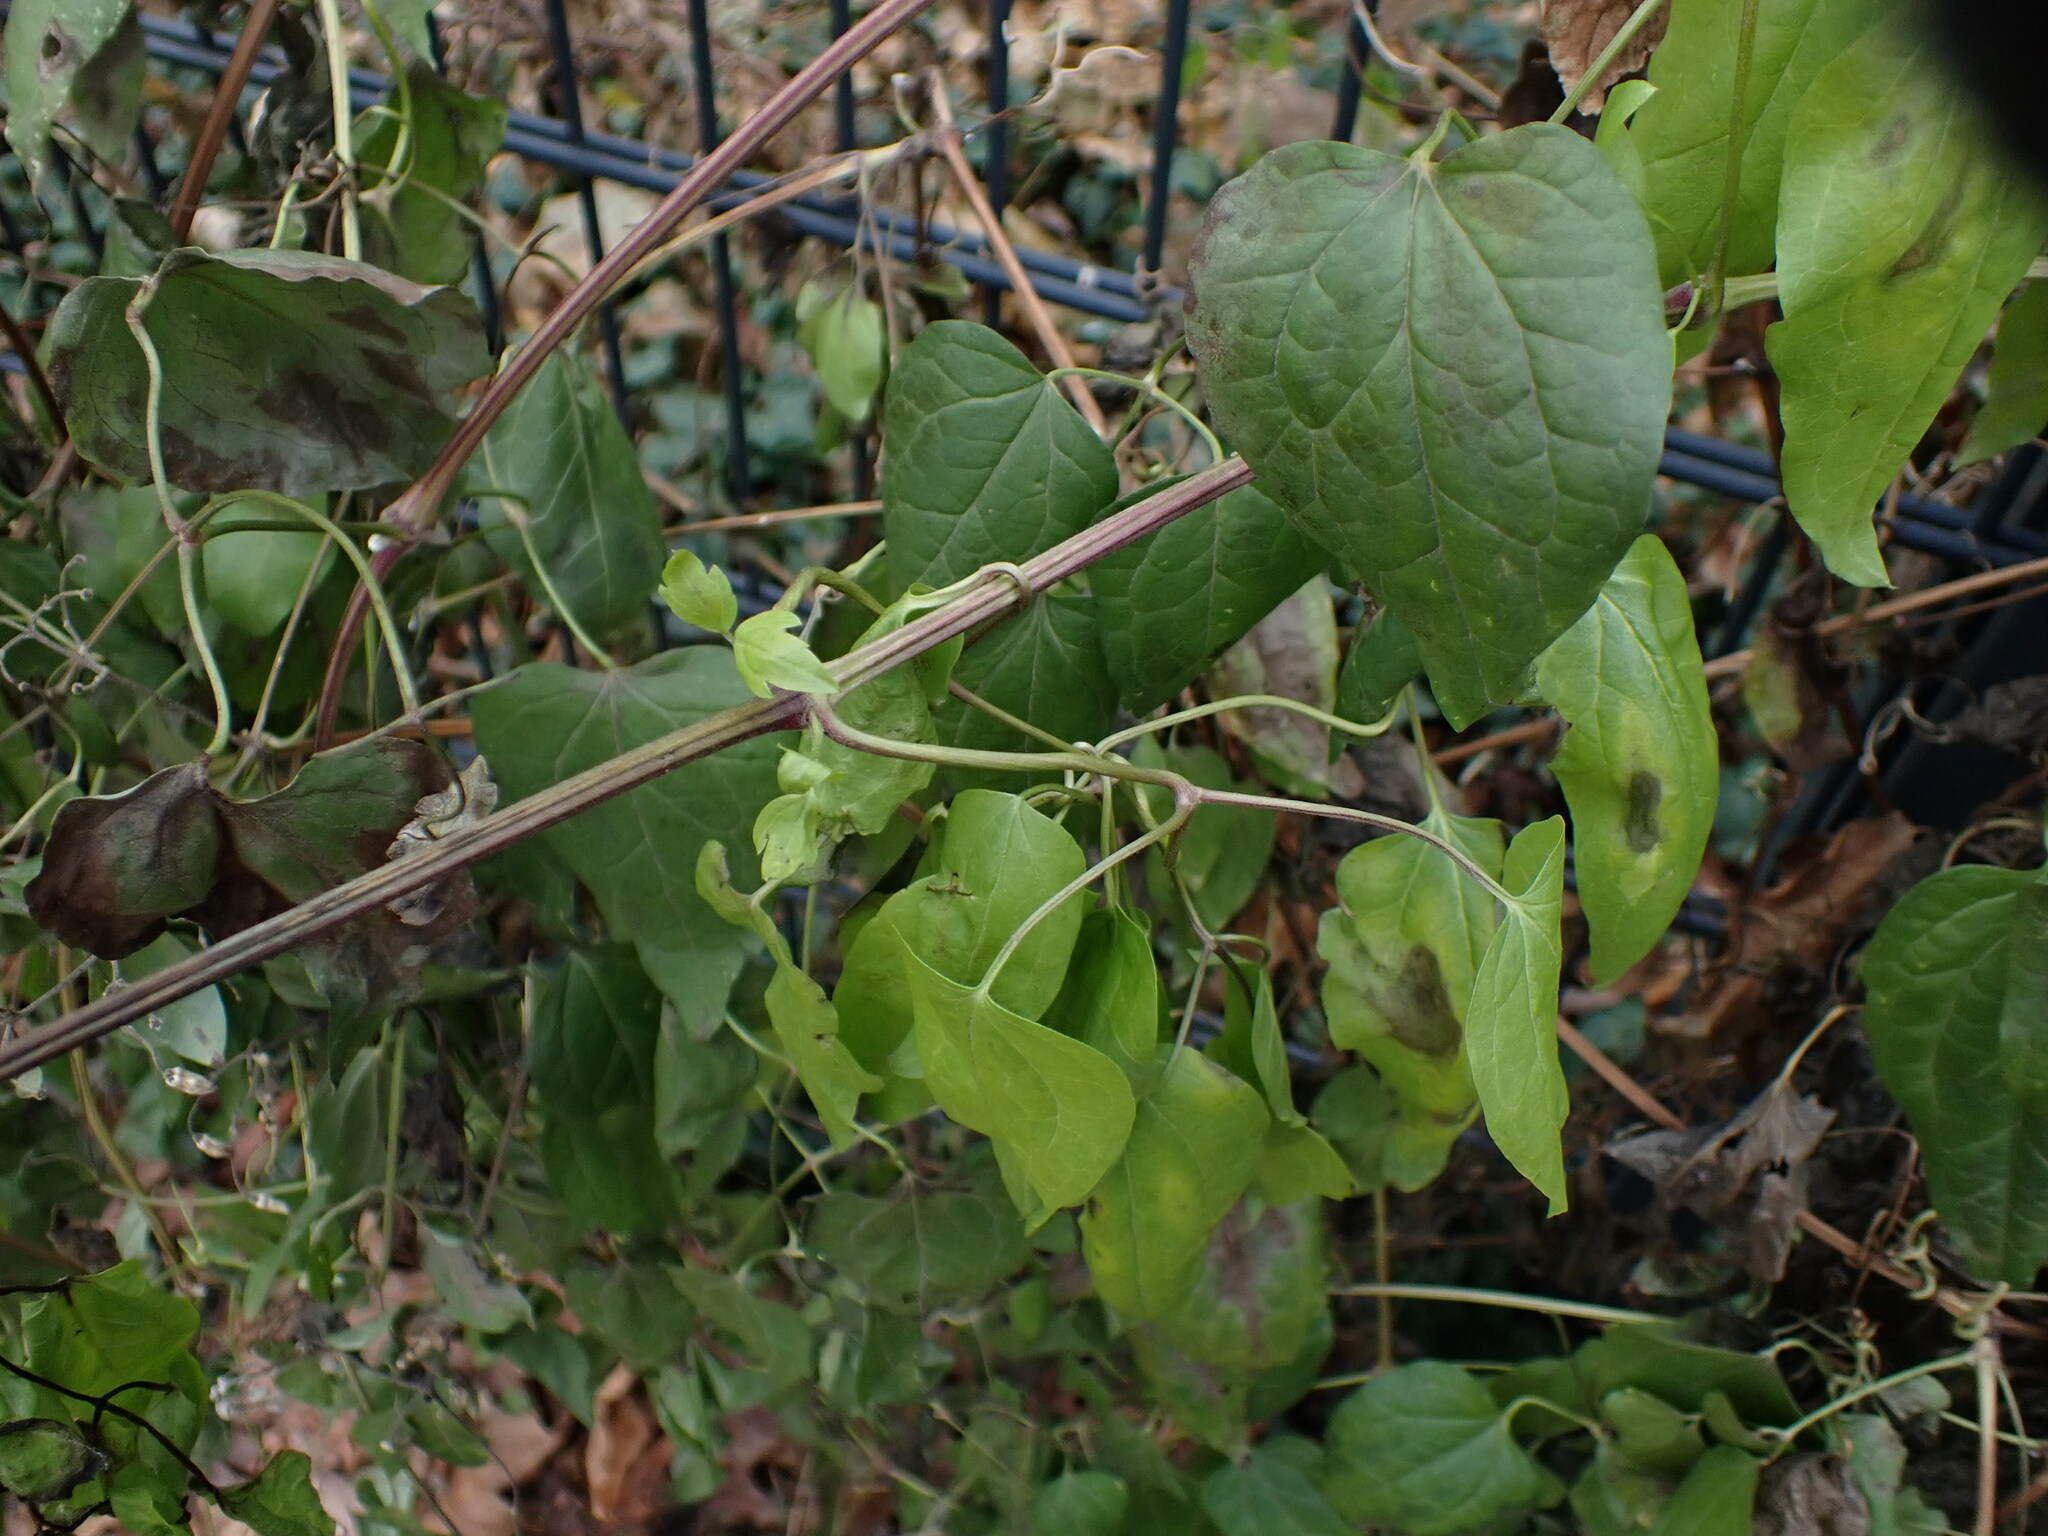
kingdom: Plantae
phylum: Tracheophyta
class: Magnoliopsida
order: Ranunculales
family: Ranunculaceae
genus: Clematis
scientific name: Clematis vitalba
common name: Evergreen clematis
